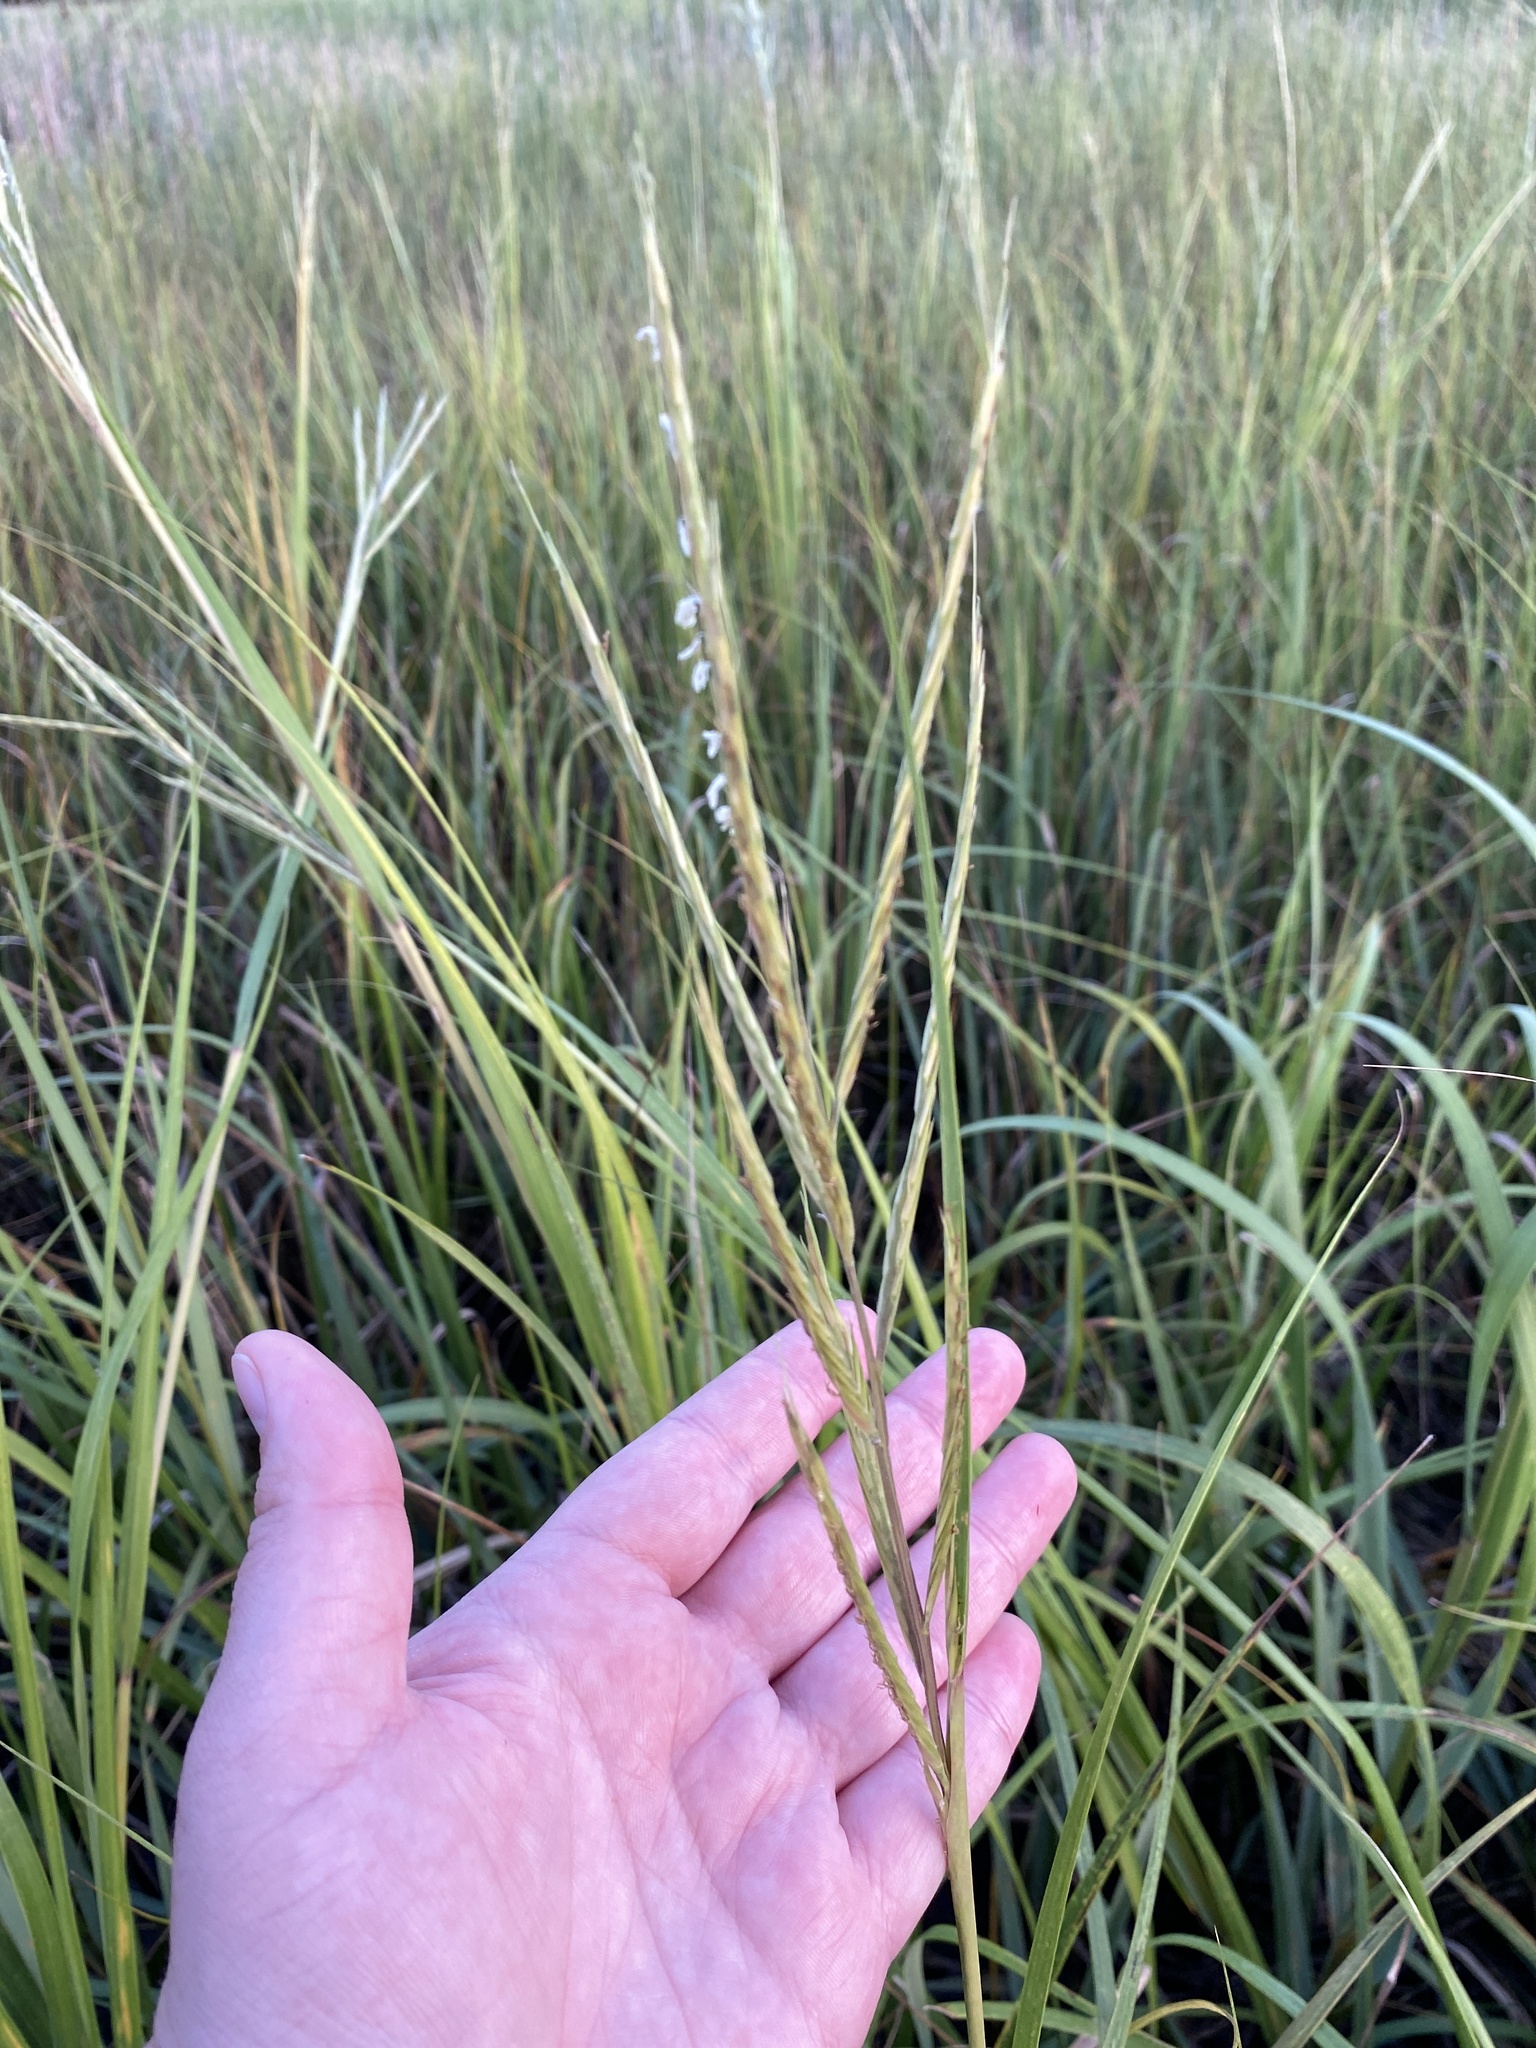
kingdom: Plantae
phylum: Tracheophyta
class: Liliopsida
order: Poales
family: Poaceae
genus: Sporobolus
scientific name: Sporobolus alterniflorus
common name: Atlantic cordgrass
